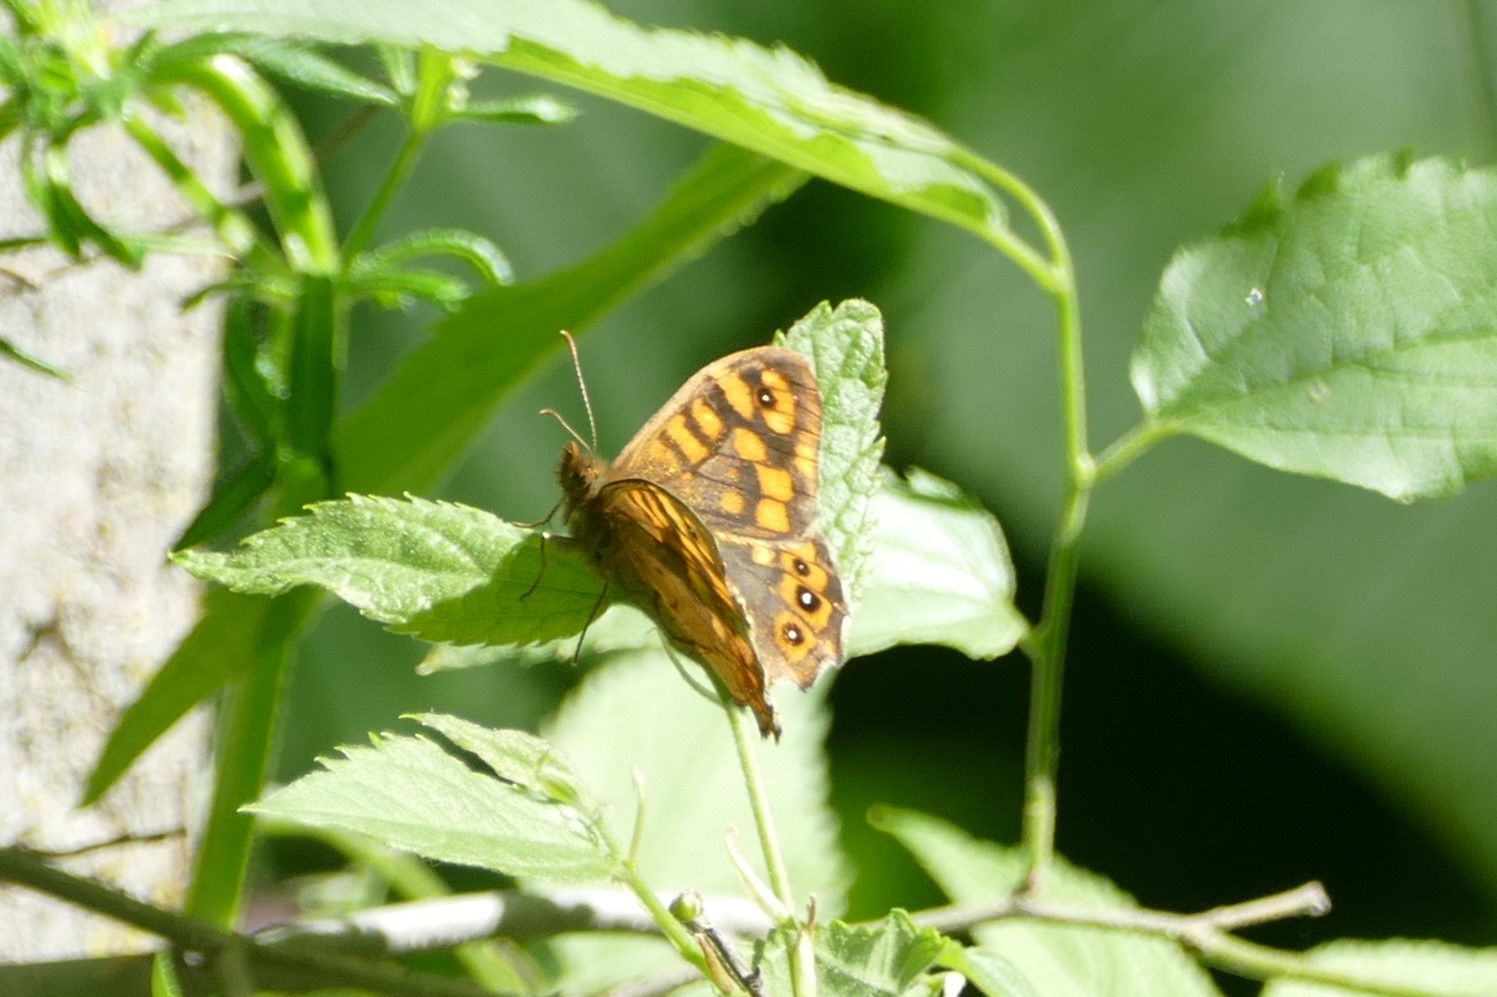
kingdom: Animalia
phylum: Arthropoda
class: Insecta
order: Lepidoptera
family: Nymphalidae
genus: Pararge
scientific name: Pararge aegeria
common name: Speckled wood
